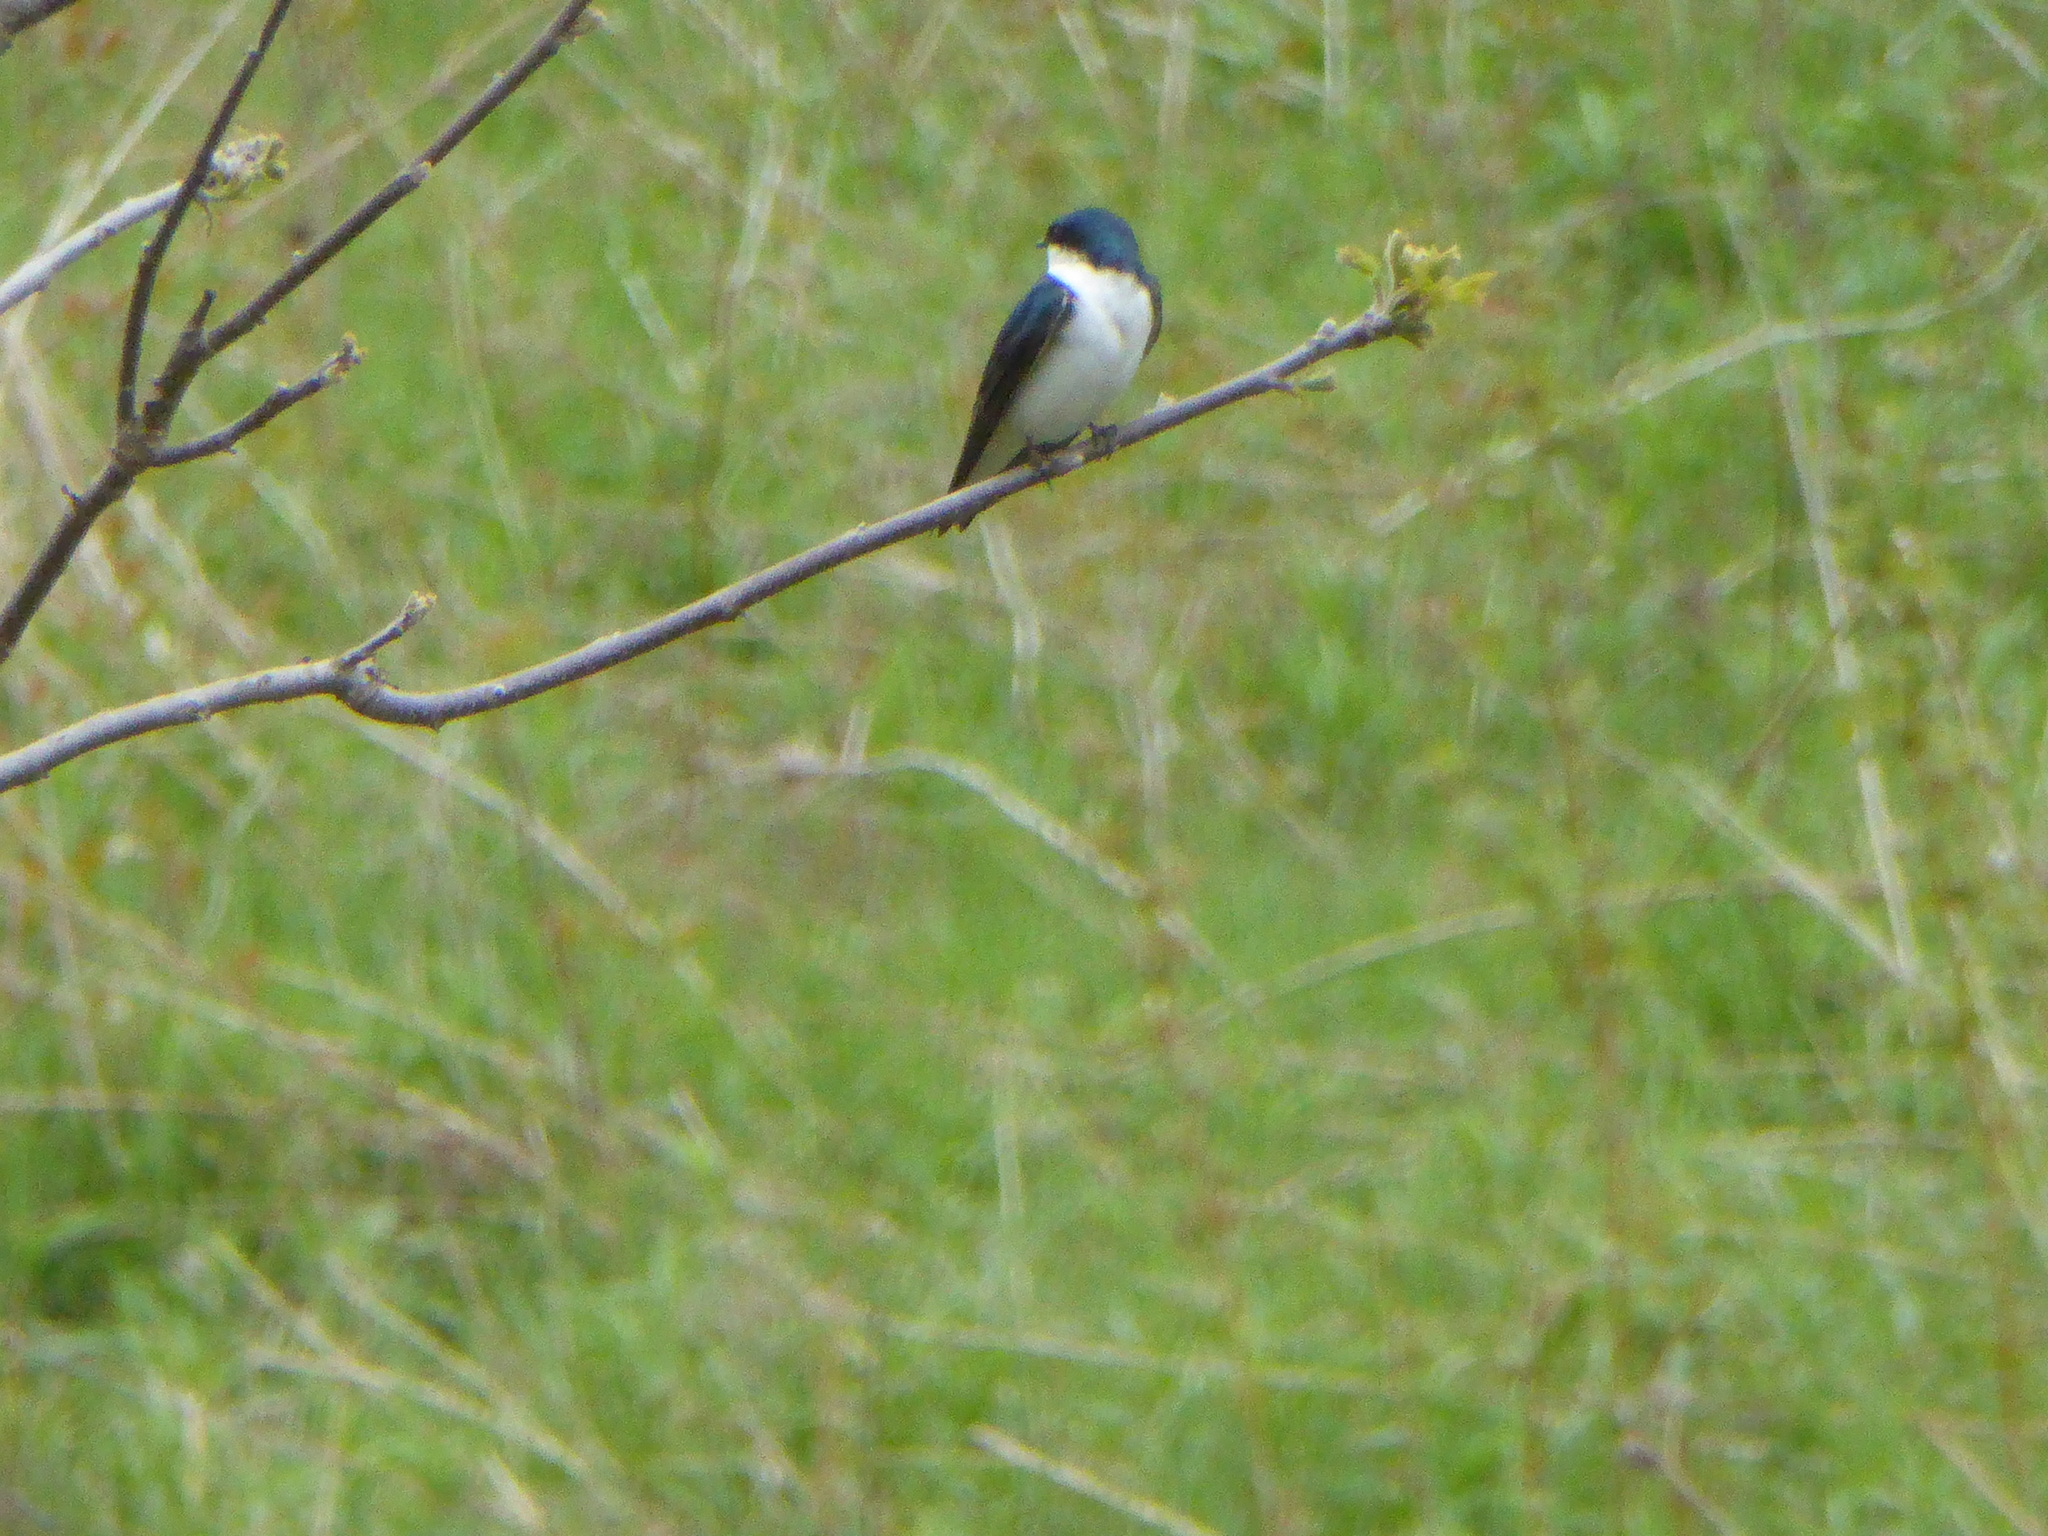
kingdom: Animalia
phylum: Chordata
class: Aves
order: Passeriformes
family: Hirundinidae
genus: Tachycineta
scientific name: Tachycineta bicolor
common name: Tree swallow
